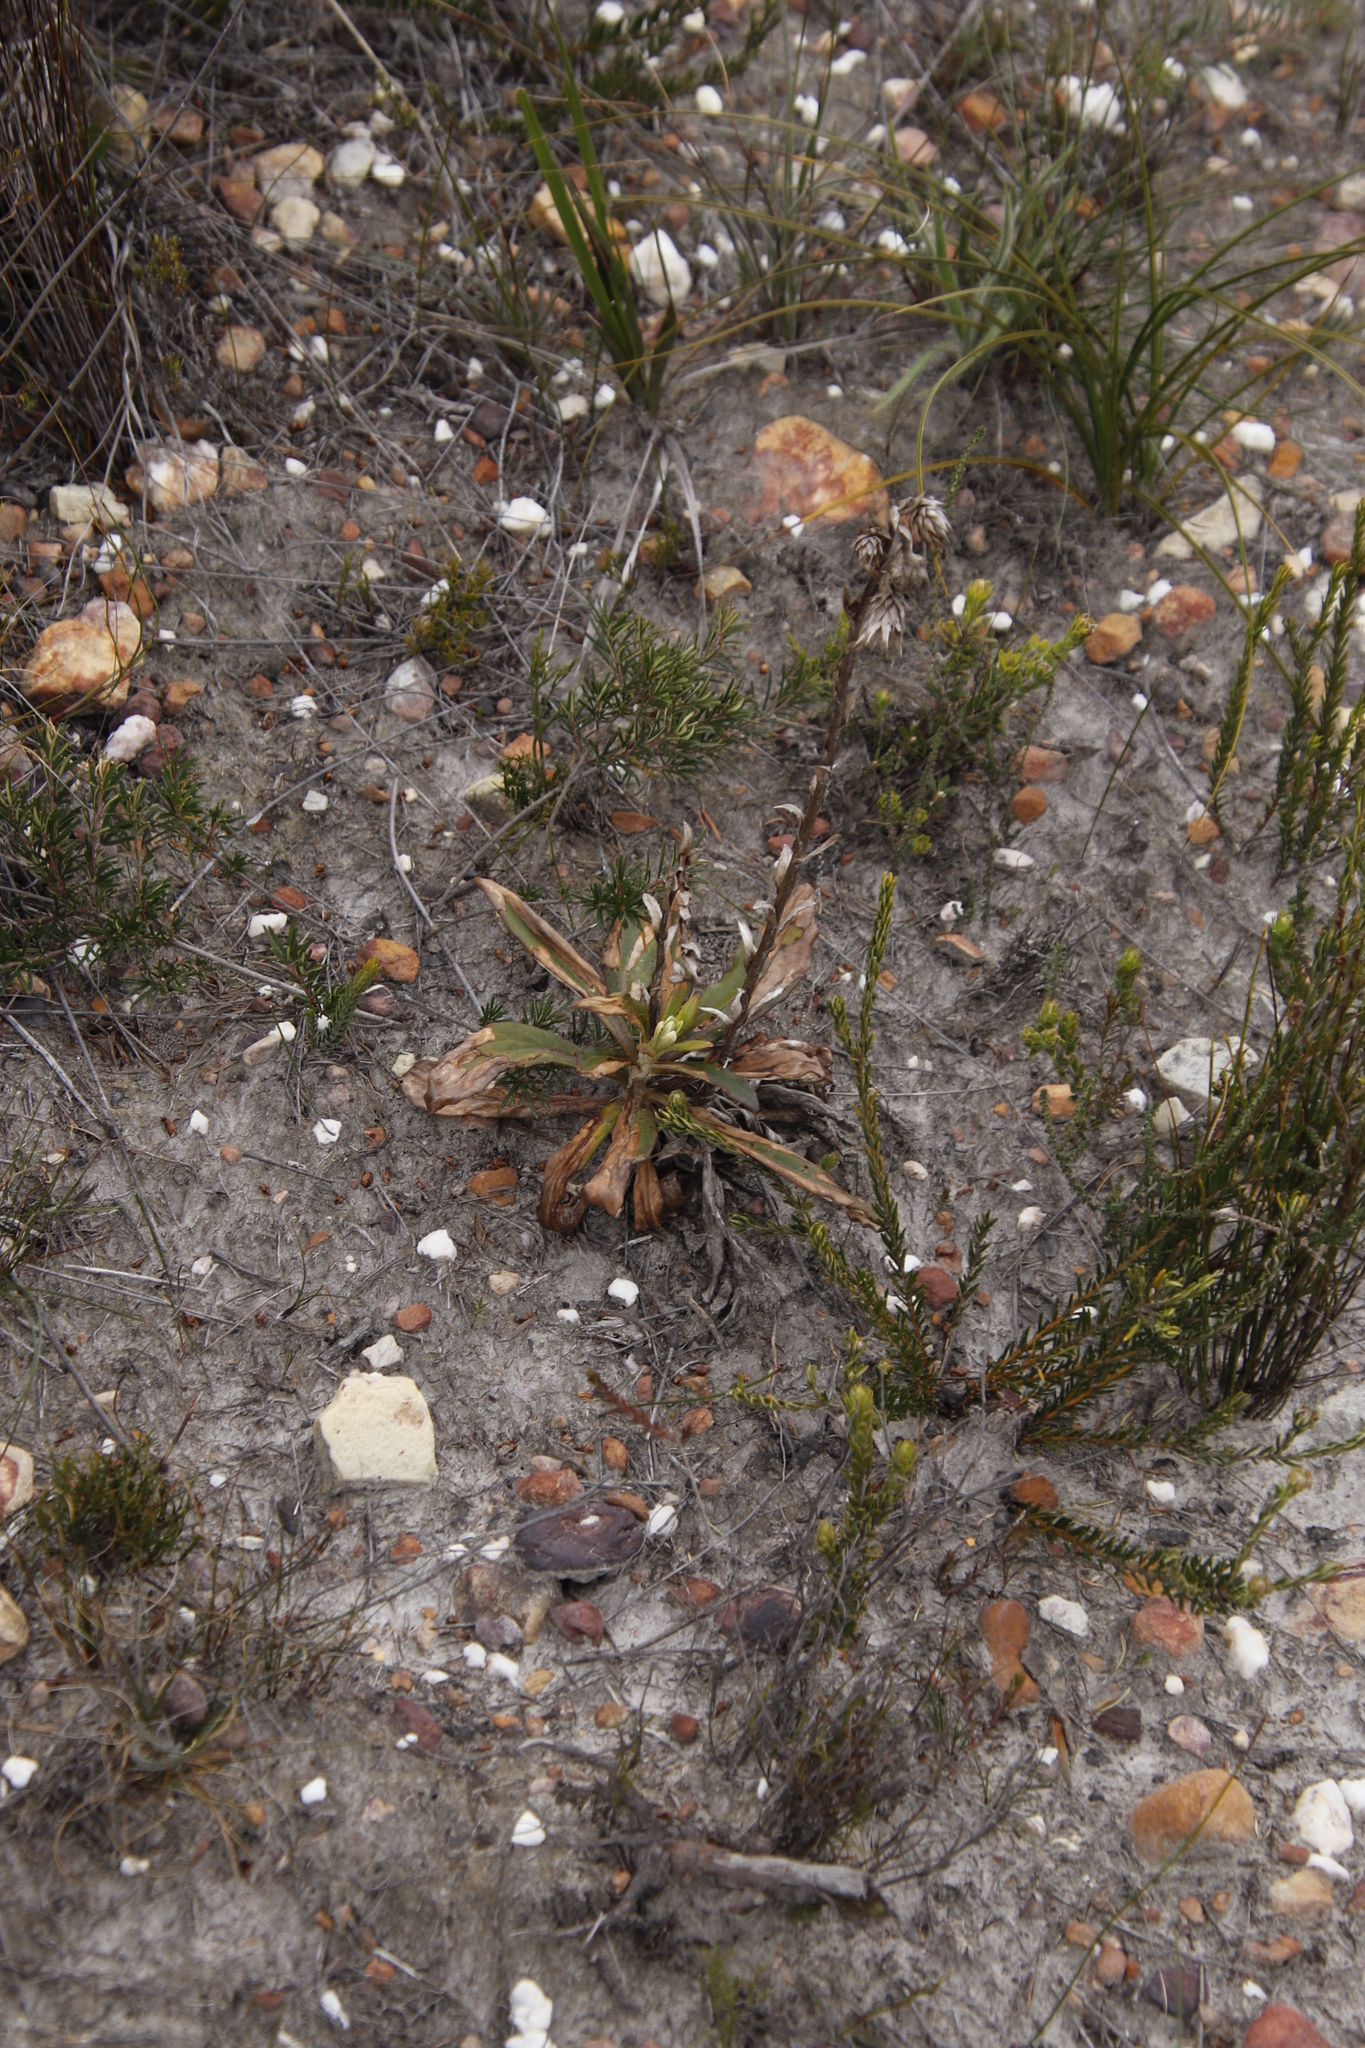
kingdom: Plantae
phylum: Tracheophyta
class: Magnoliopsida
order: Asterales
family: Asteraceae
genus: Berkheya
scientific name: Berkheya herbacea
